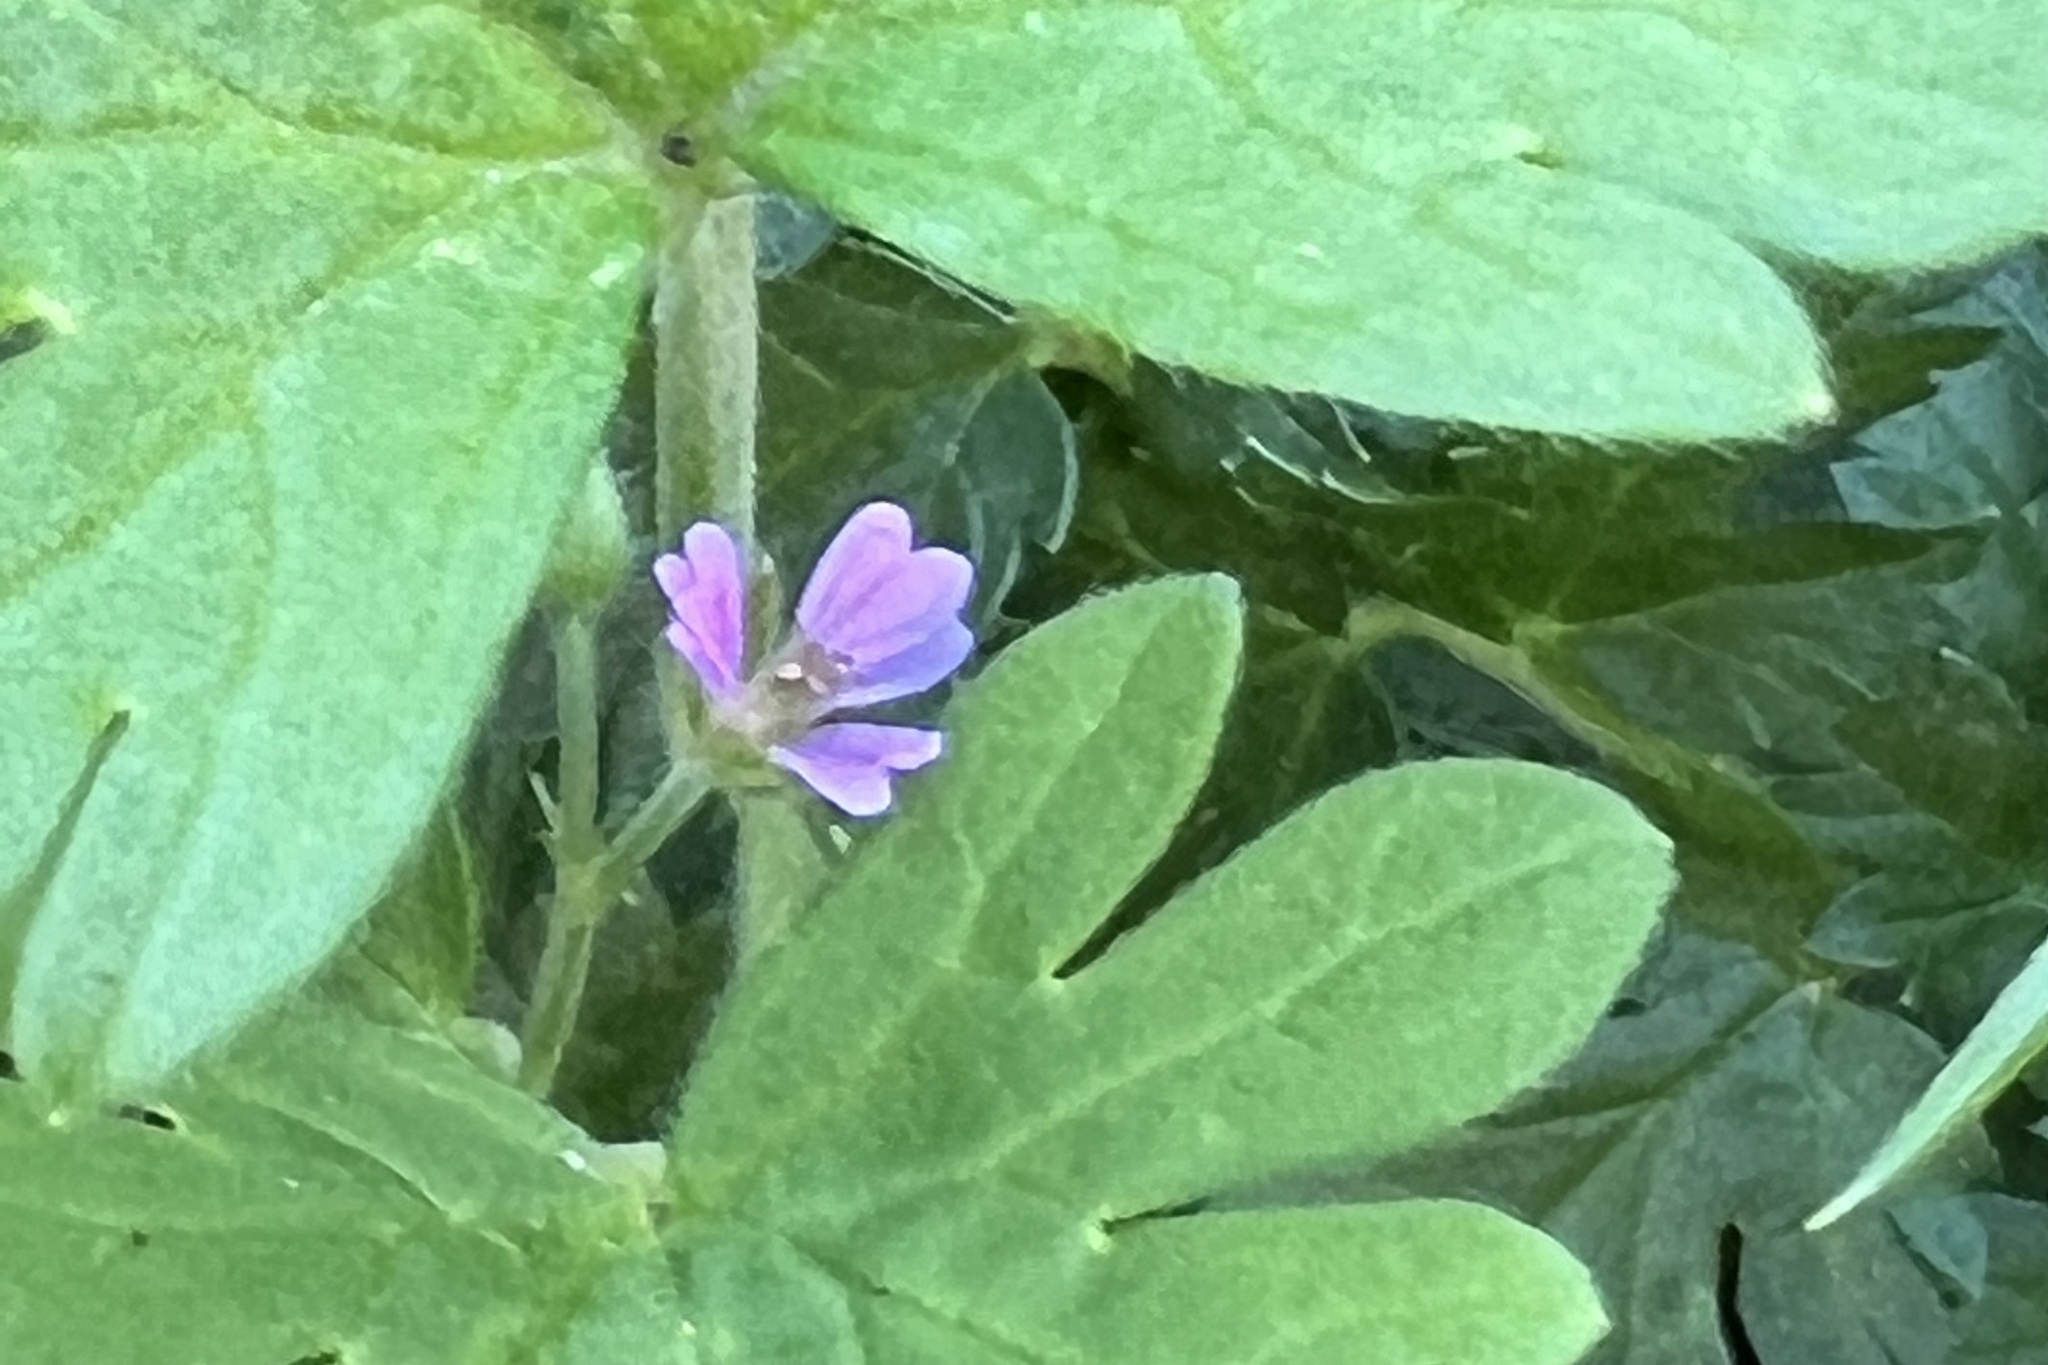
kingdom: Plantae
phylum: Tracheophyta
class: Magnoliopsida
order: Geraniales
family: Geraniaceae
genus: Geranium
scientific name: Geranium pusillum
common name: Small geranium
